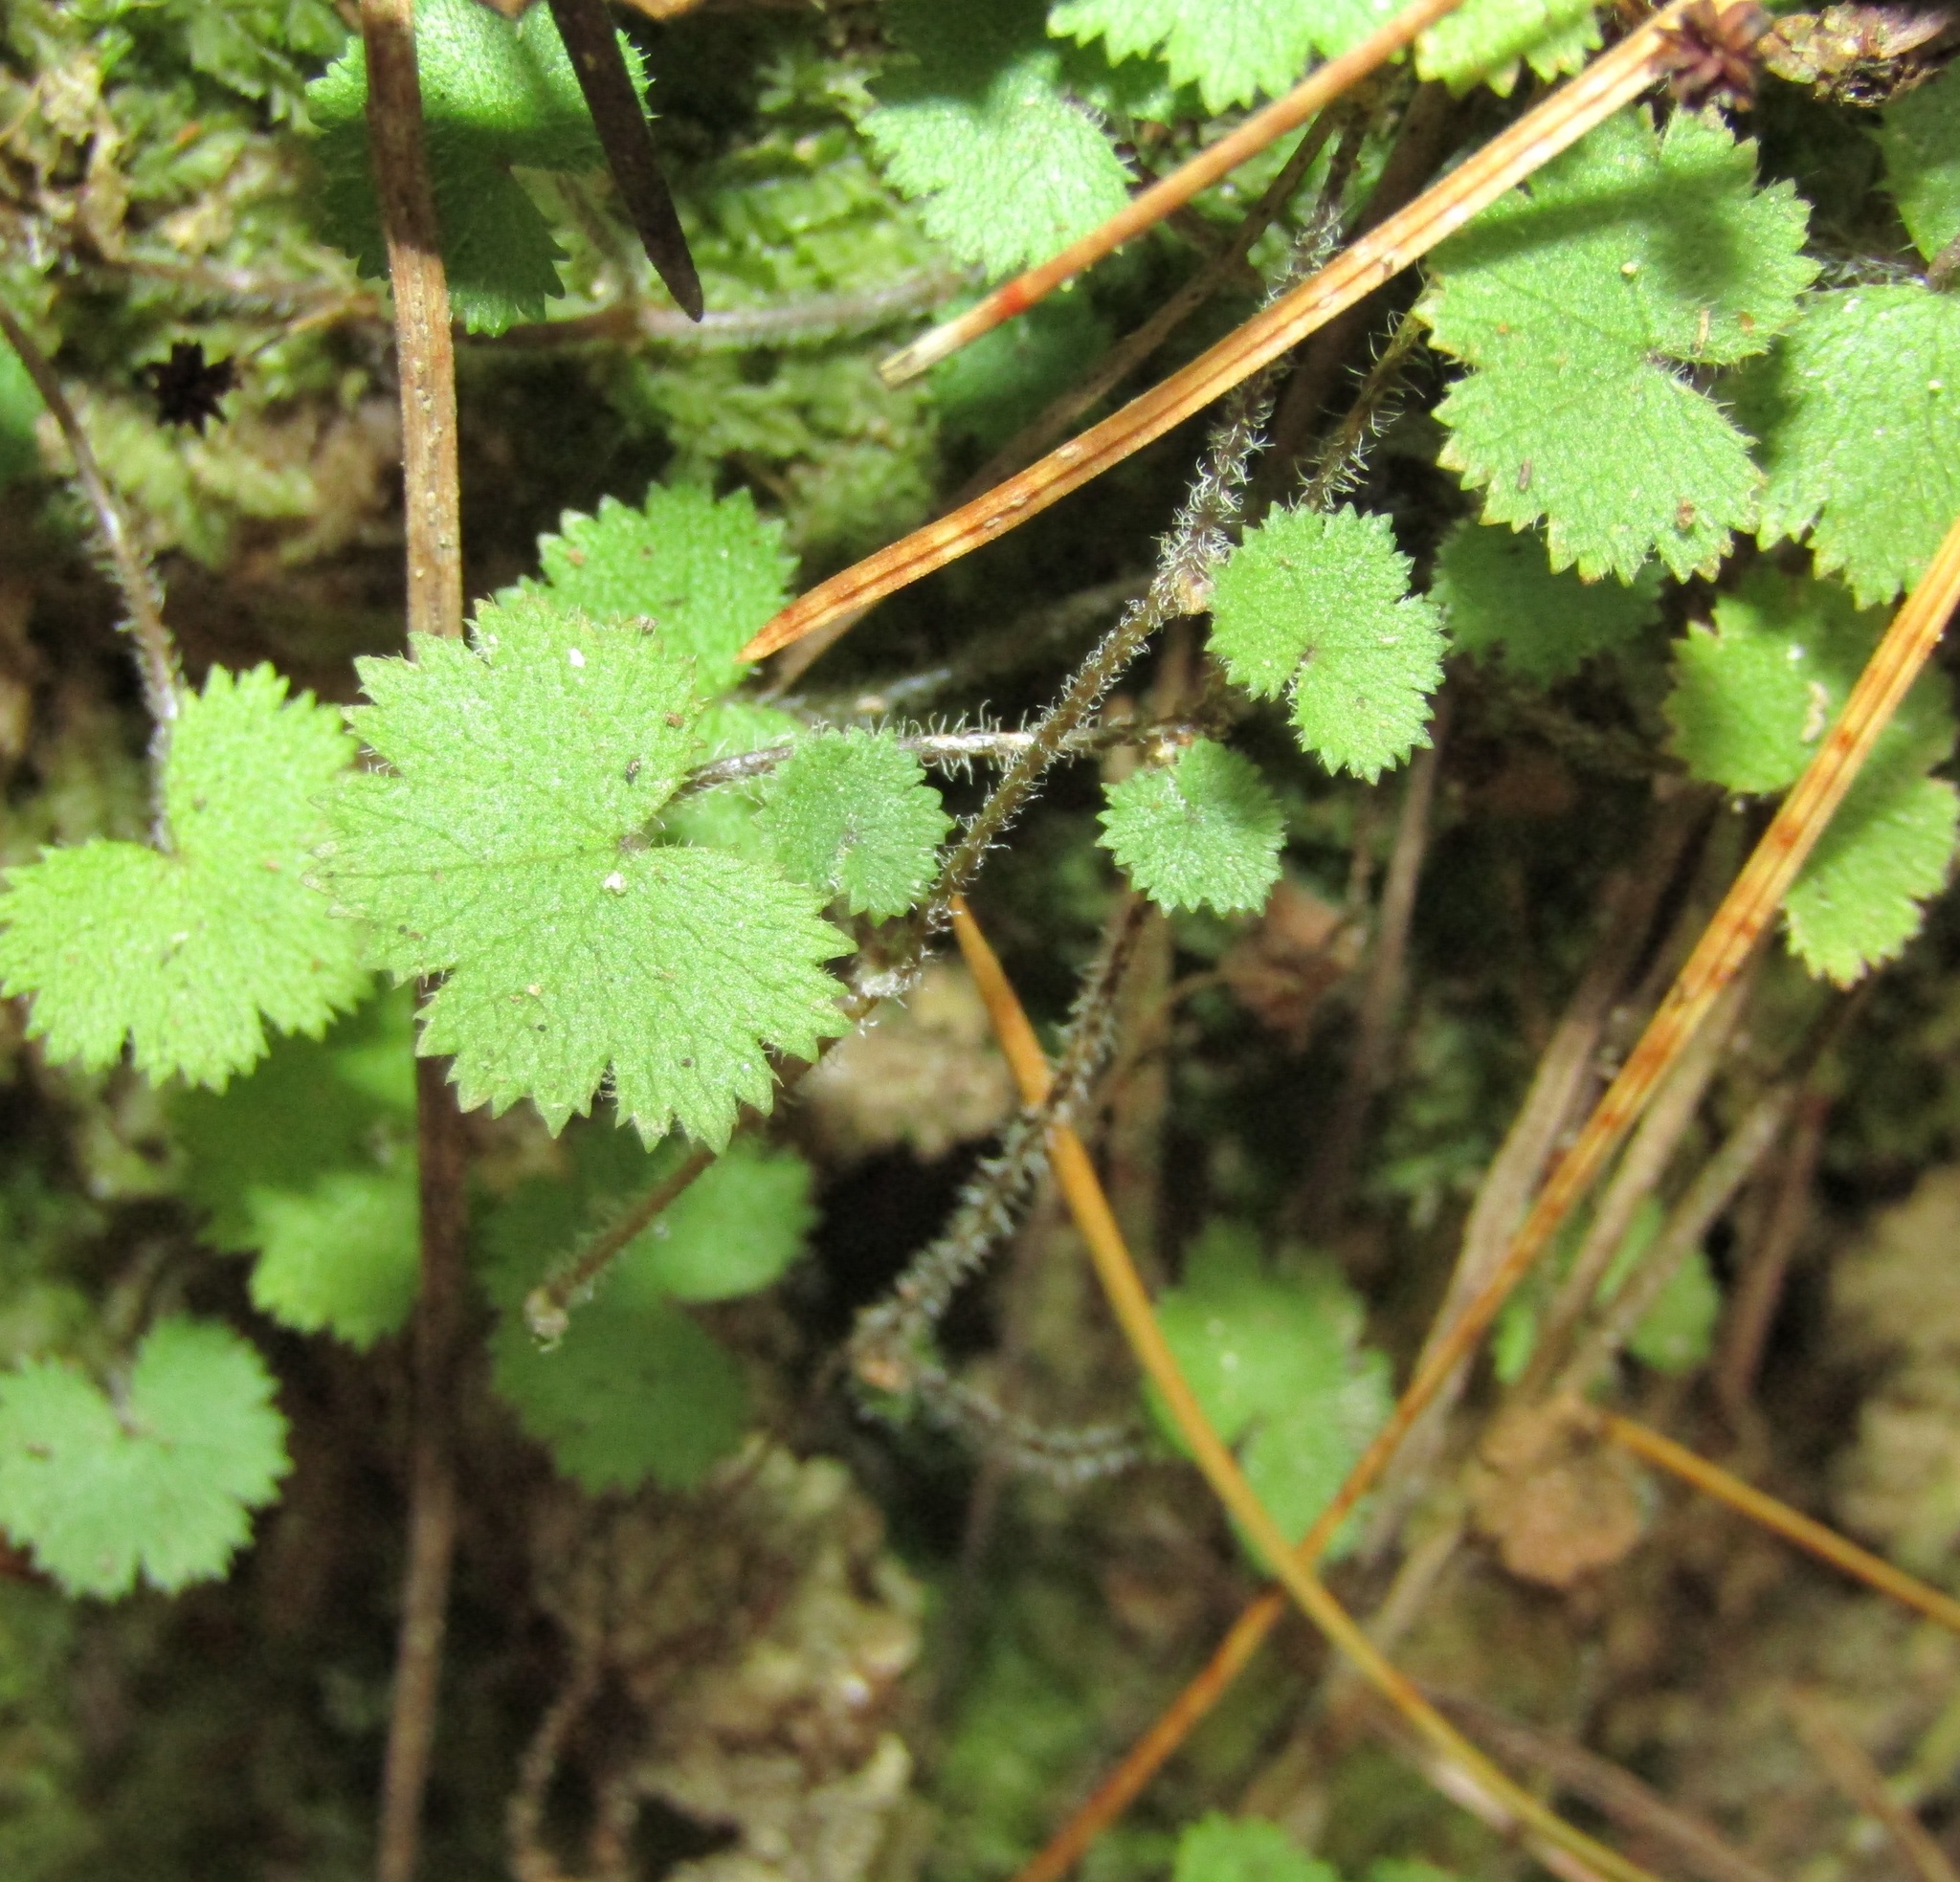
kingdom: Plantae
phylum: Tracheophyta
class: Magnoliopsida
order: Apiales
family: Araliaceae
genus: Hydrocotyle
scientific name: Hydrocotyle moschata
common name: Hairy pennywort
